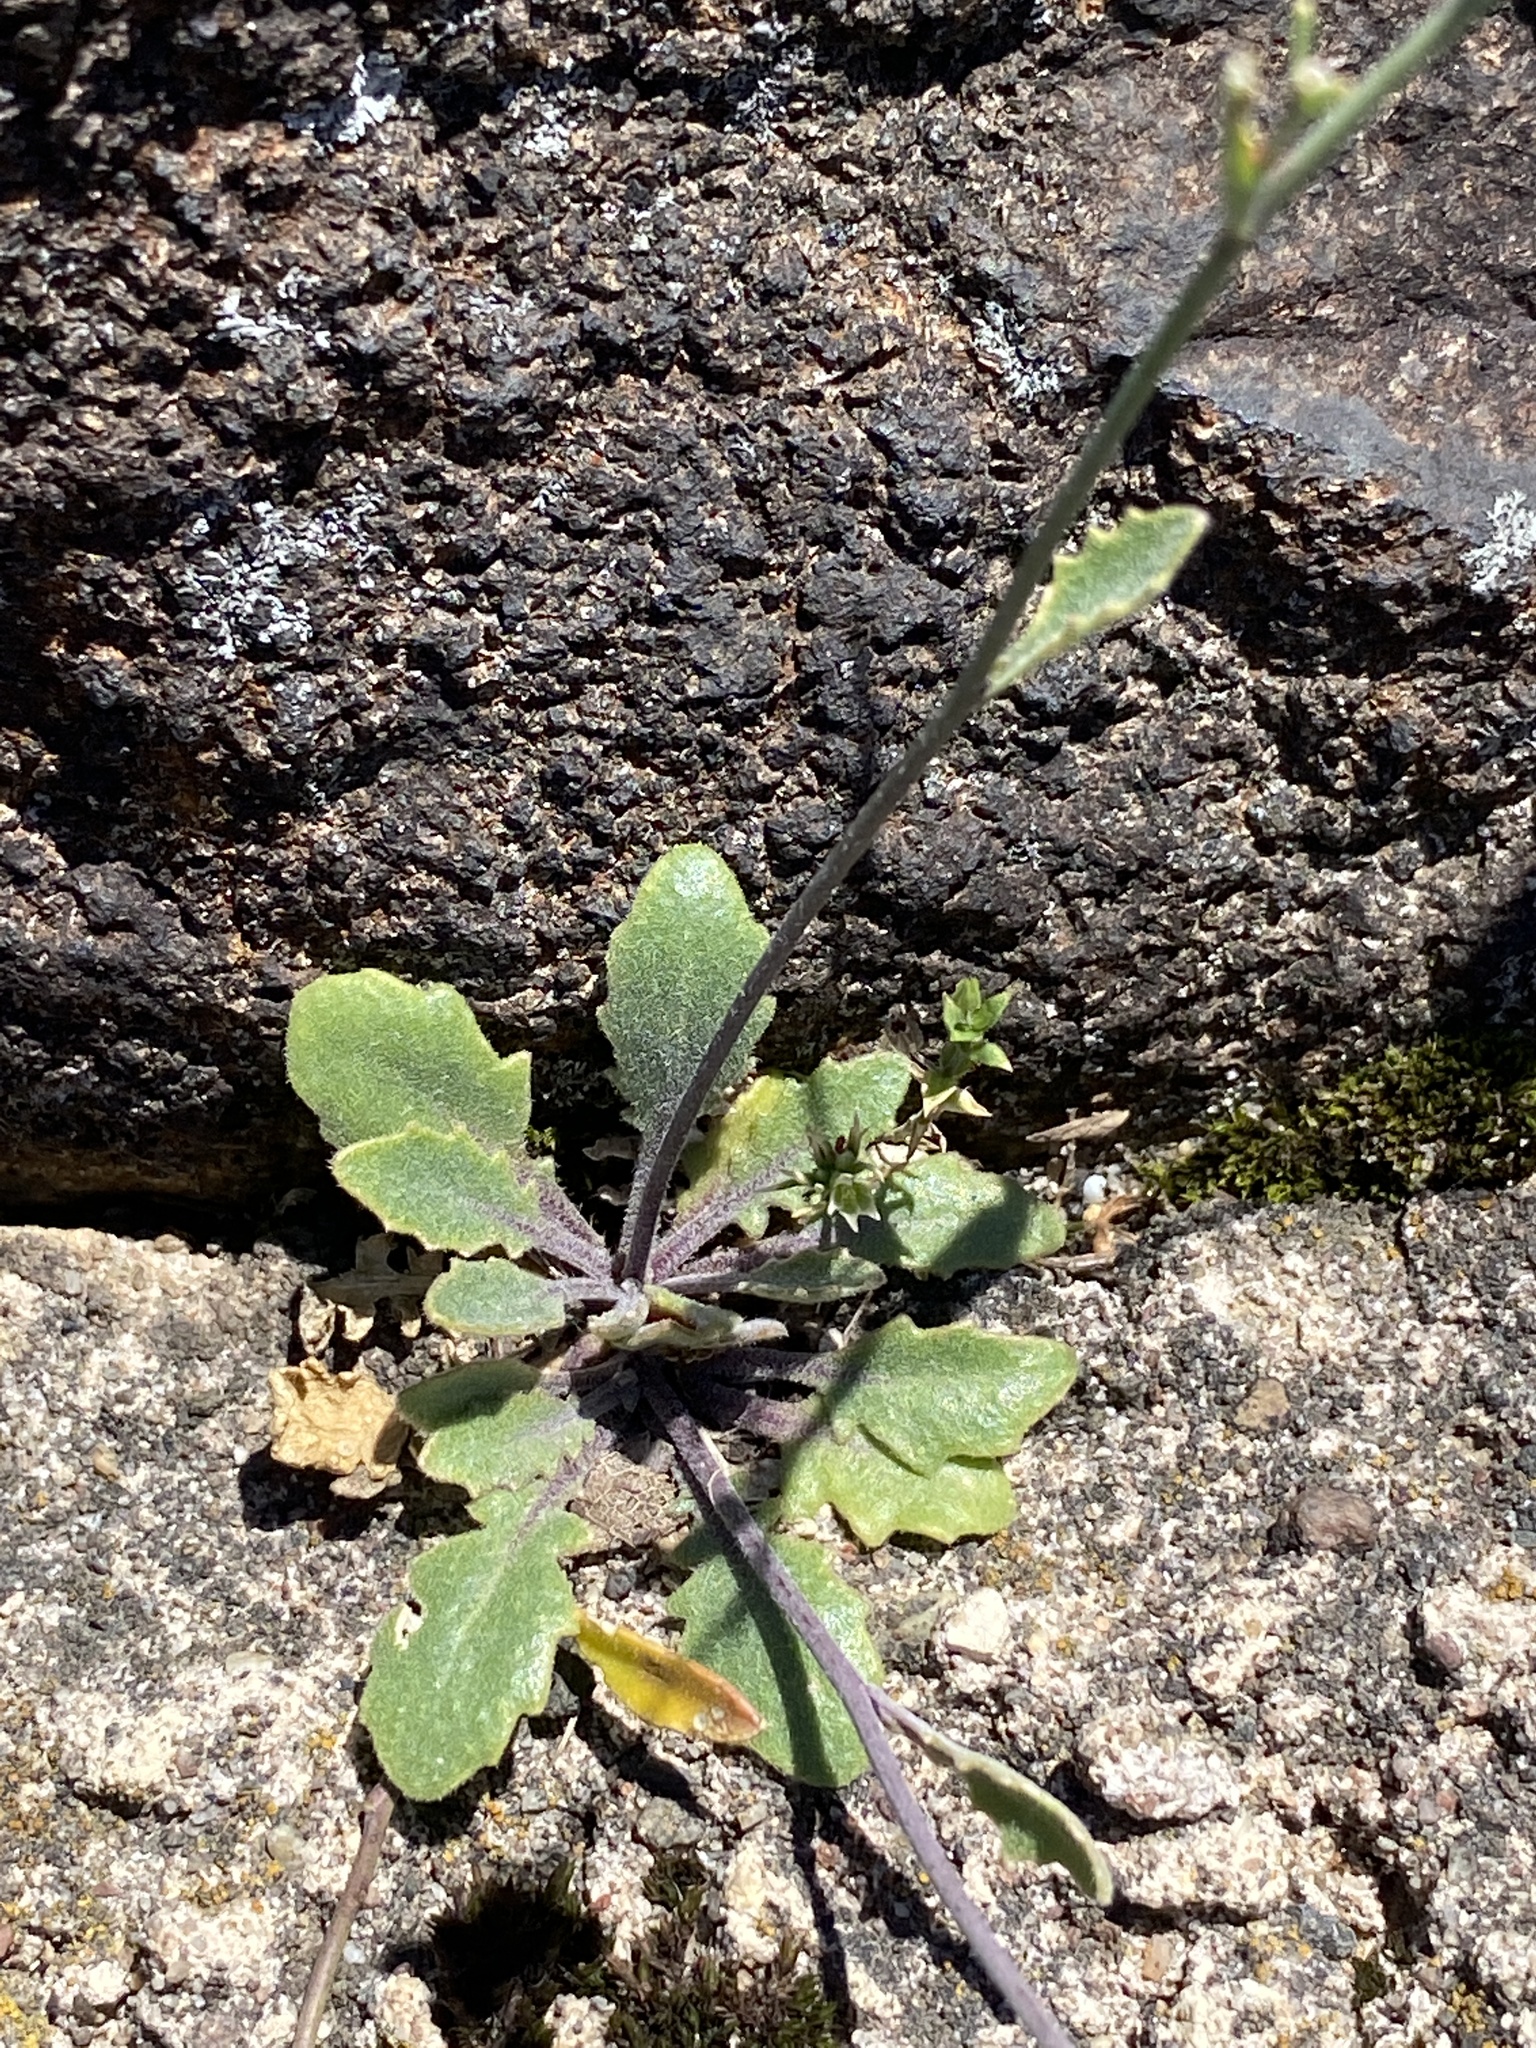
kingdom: Plantae
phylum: Tracheophyta
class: Magnoliopsida
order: Brassicales
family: Brassicaceae
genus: Arabidopsis
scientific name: Arabidopsis lyrata
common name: Lyrate rockcress
